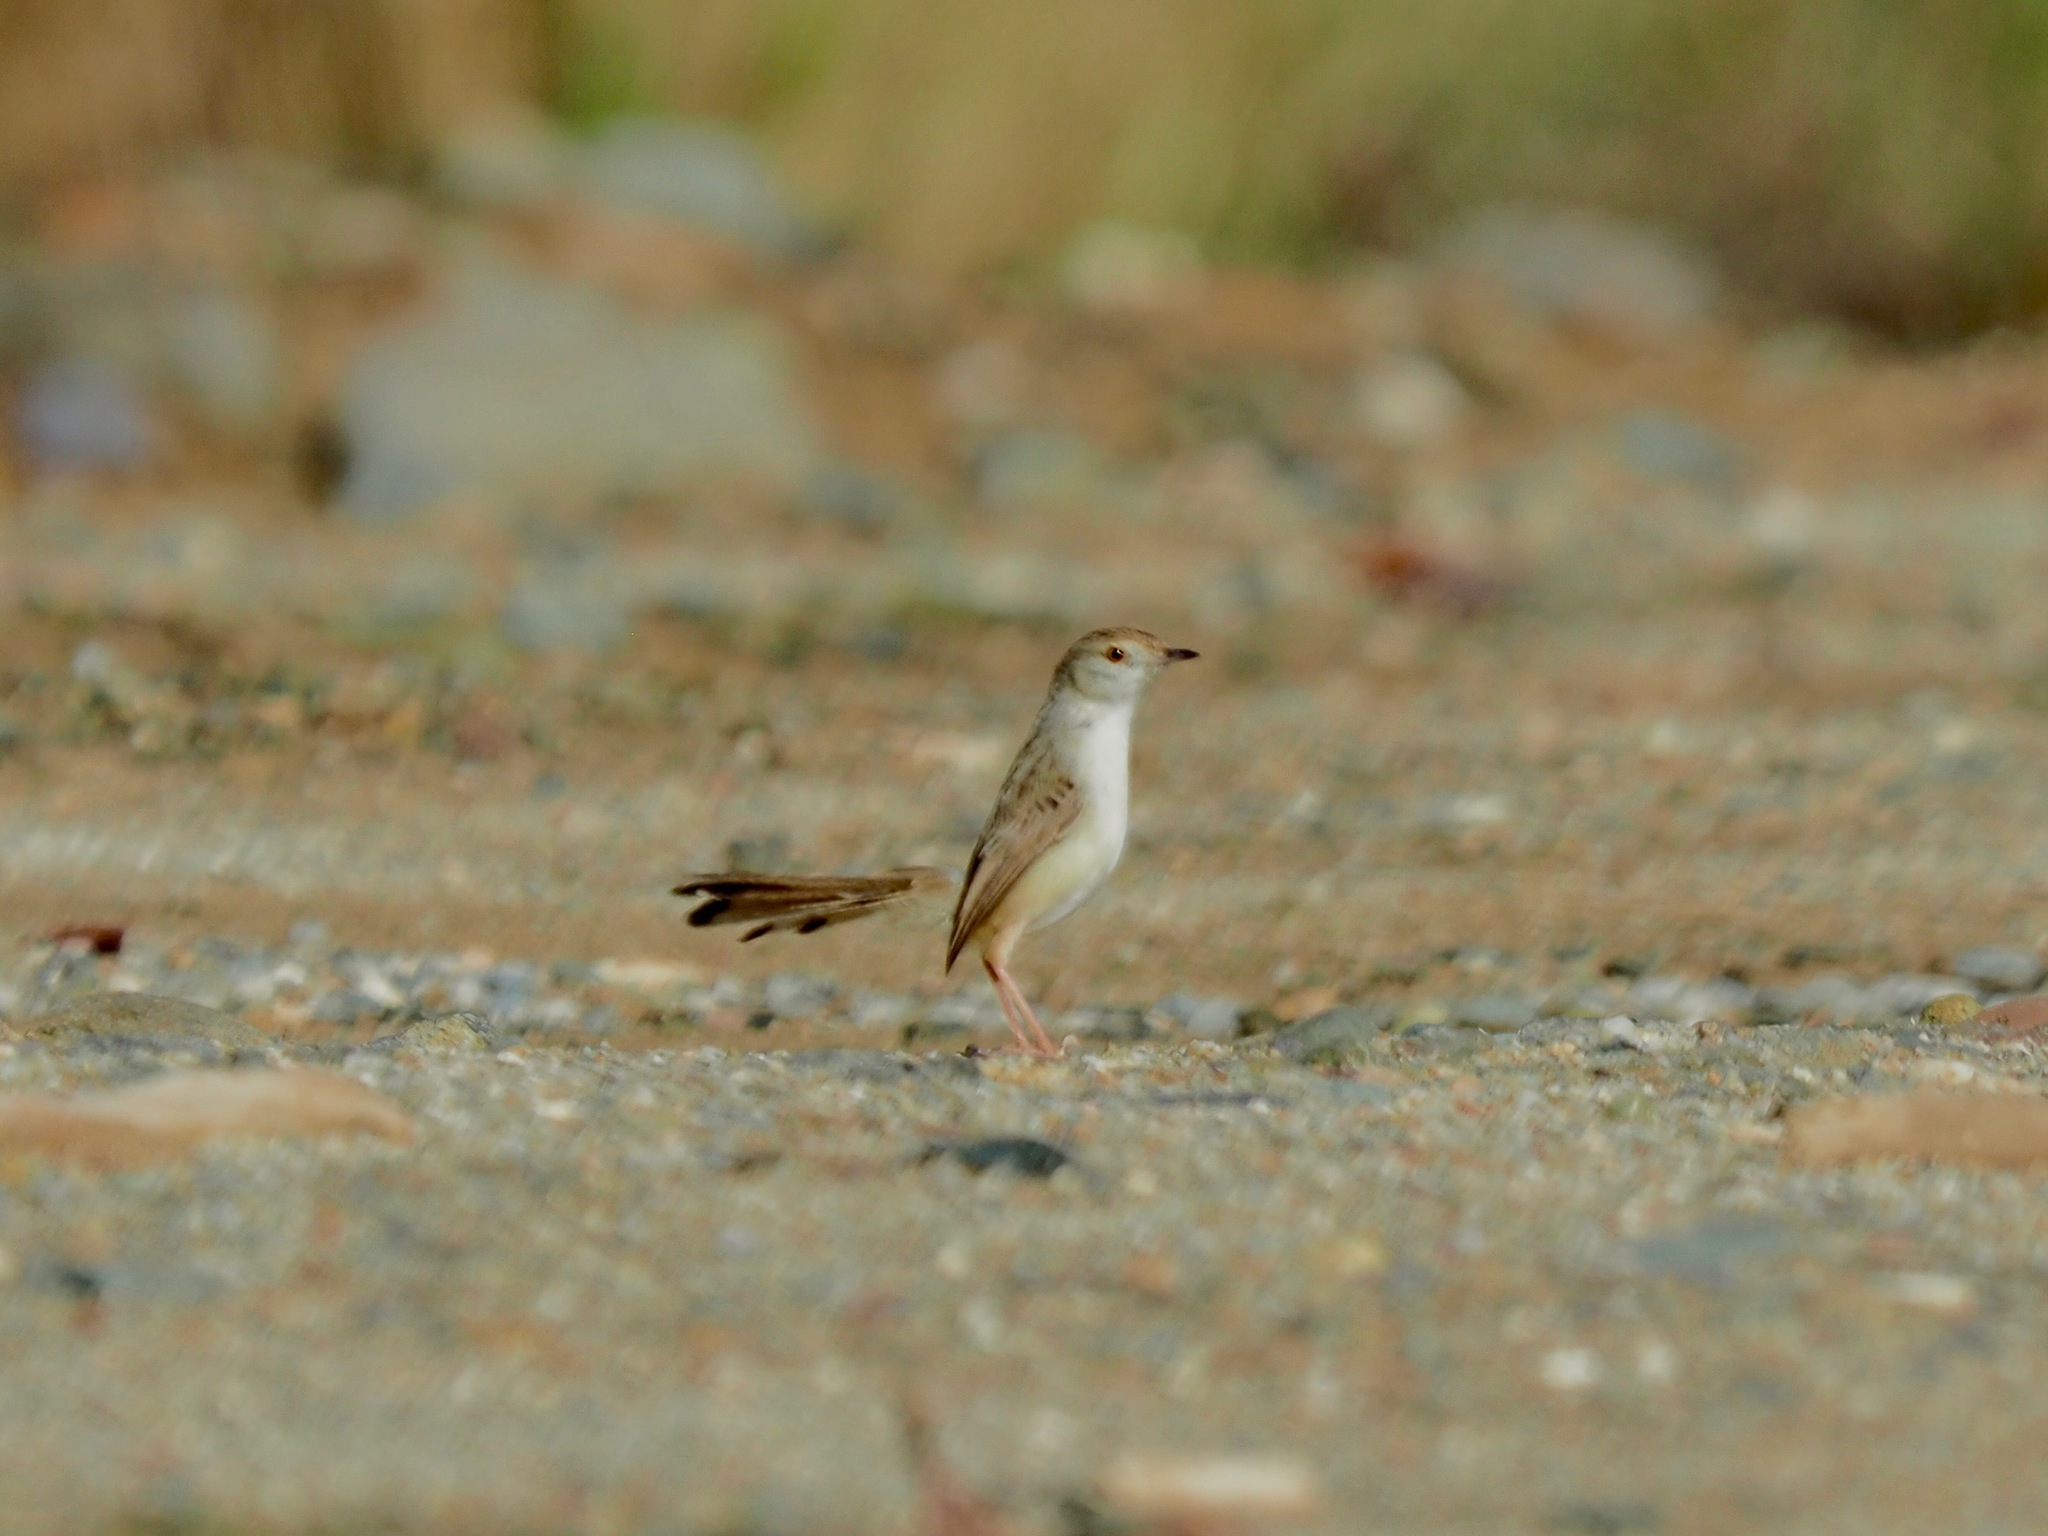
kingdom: Animalia
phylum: Chordata
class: Aves
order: Passeriformes
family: Cisticolidae
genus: Prinia
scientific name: Prinia gracilis
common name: Graceful prinia
